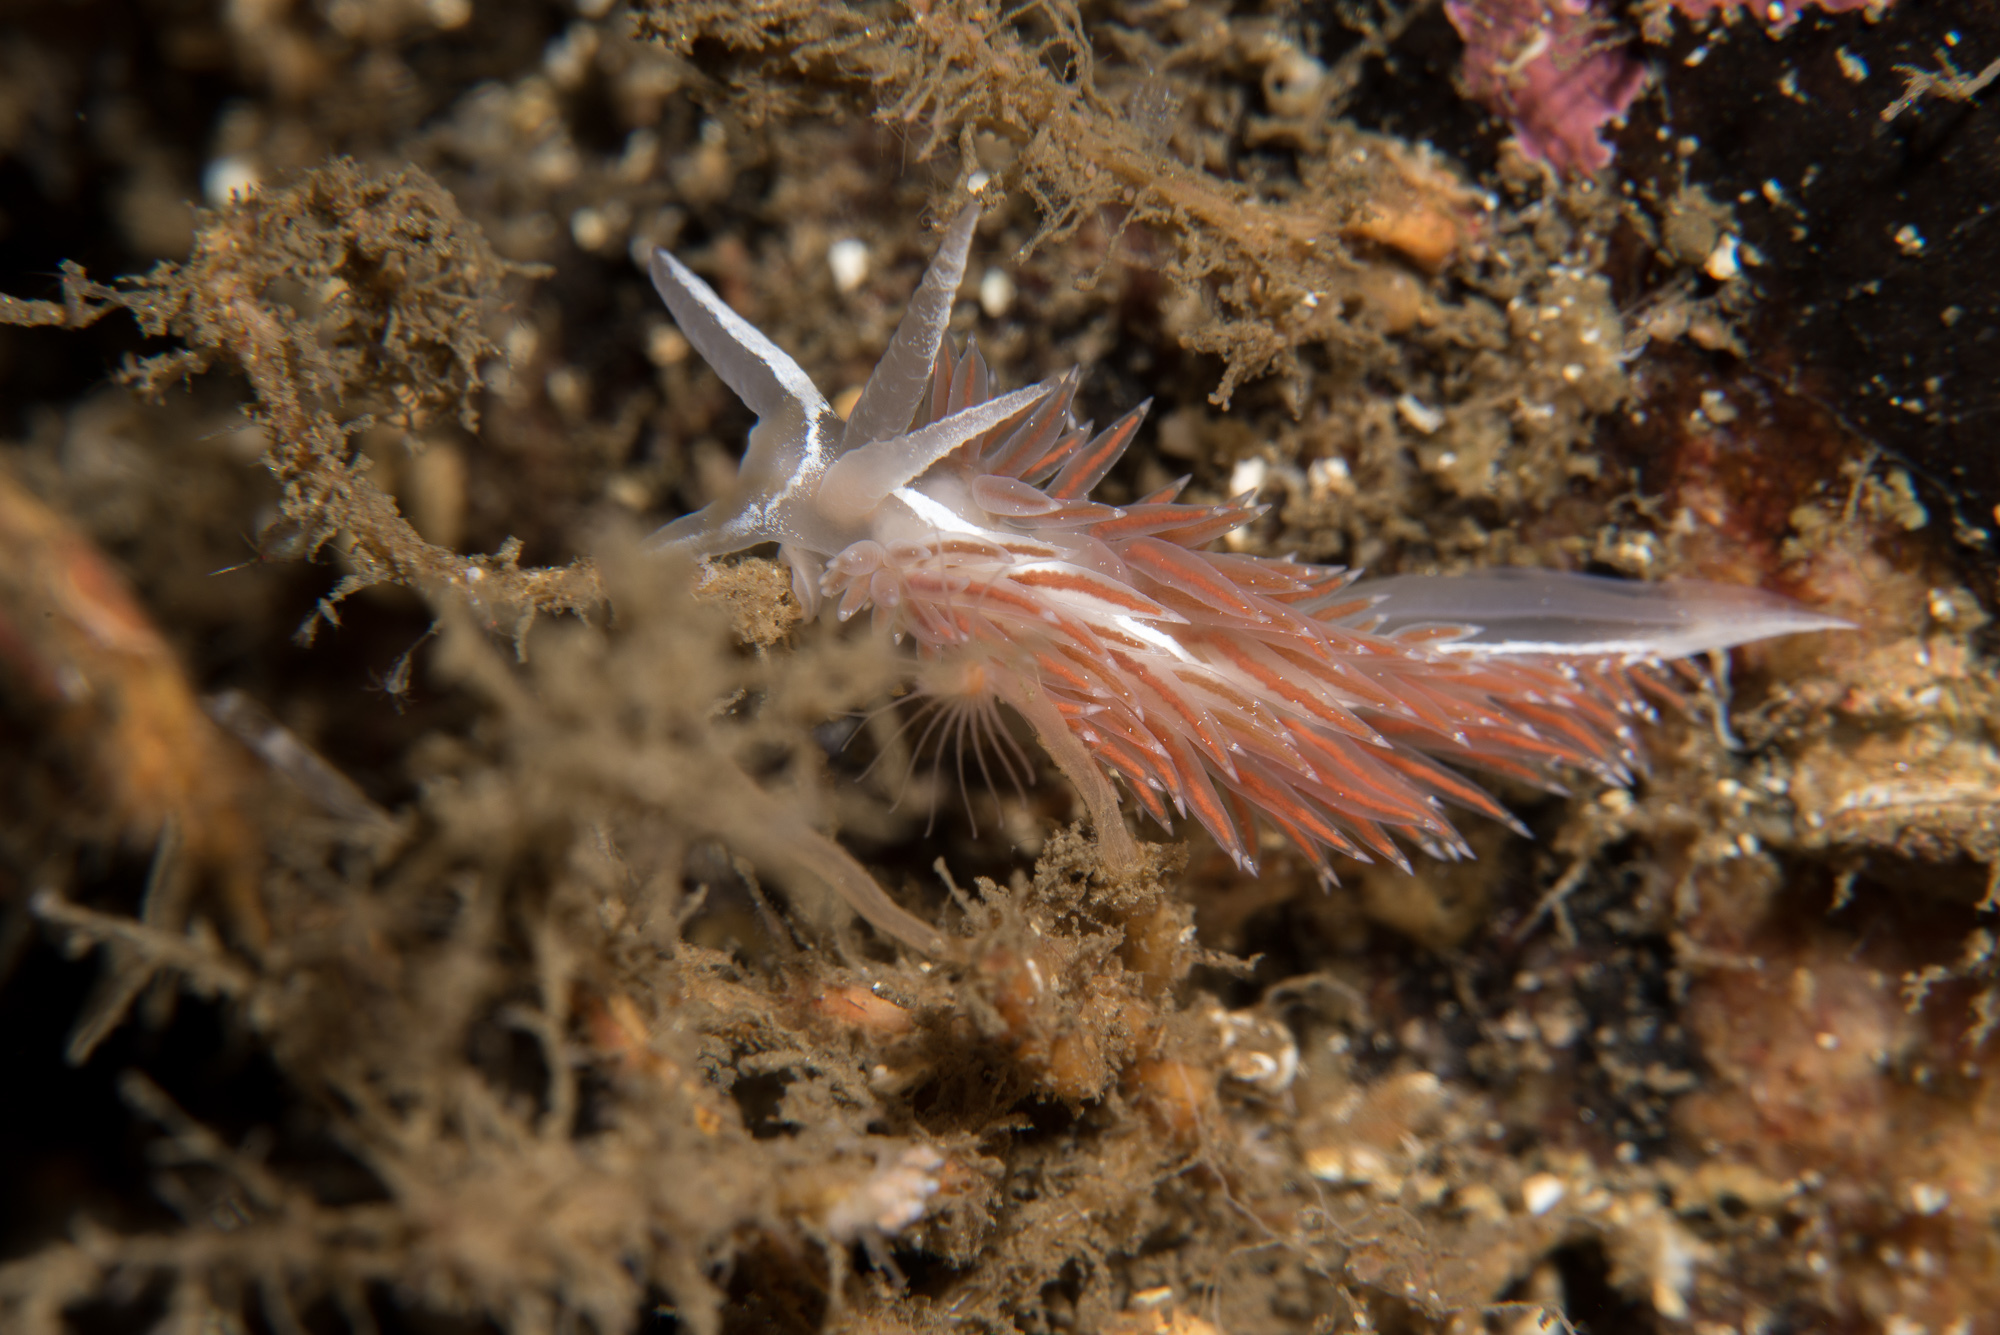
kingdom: Animalia
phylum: Mollusca
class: Gastropoda
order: Nudibranchia
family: Coryphellidae
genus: Coryphella
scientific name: Coryphella monicae
